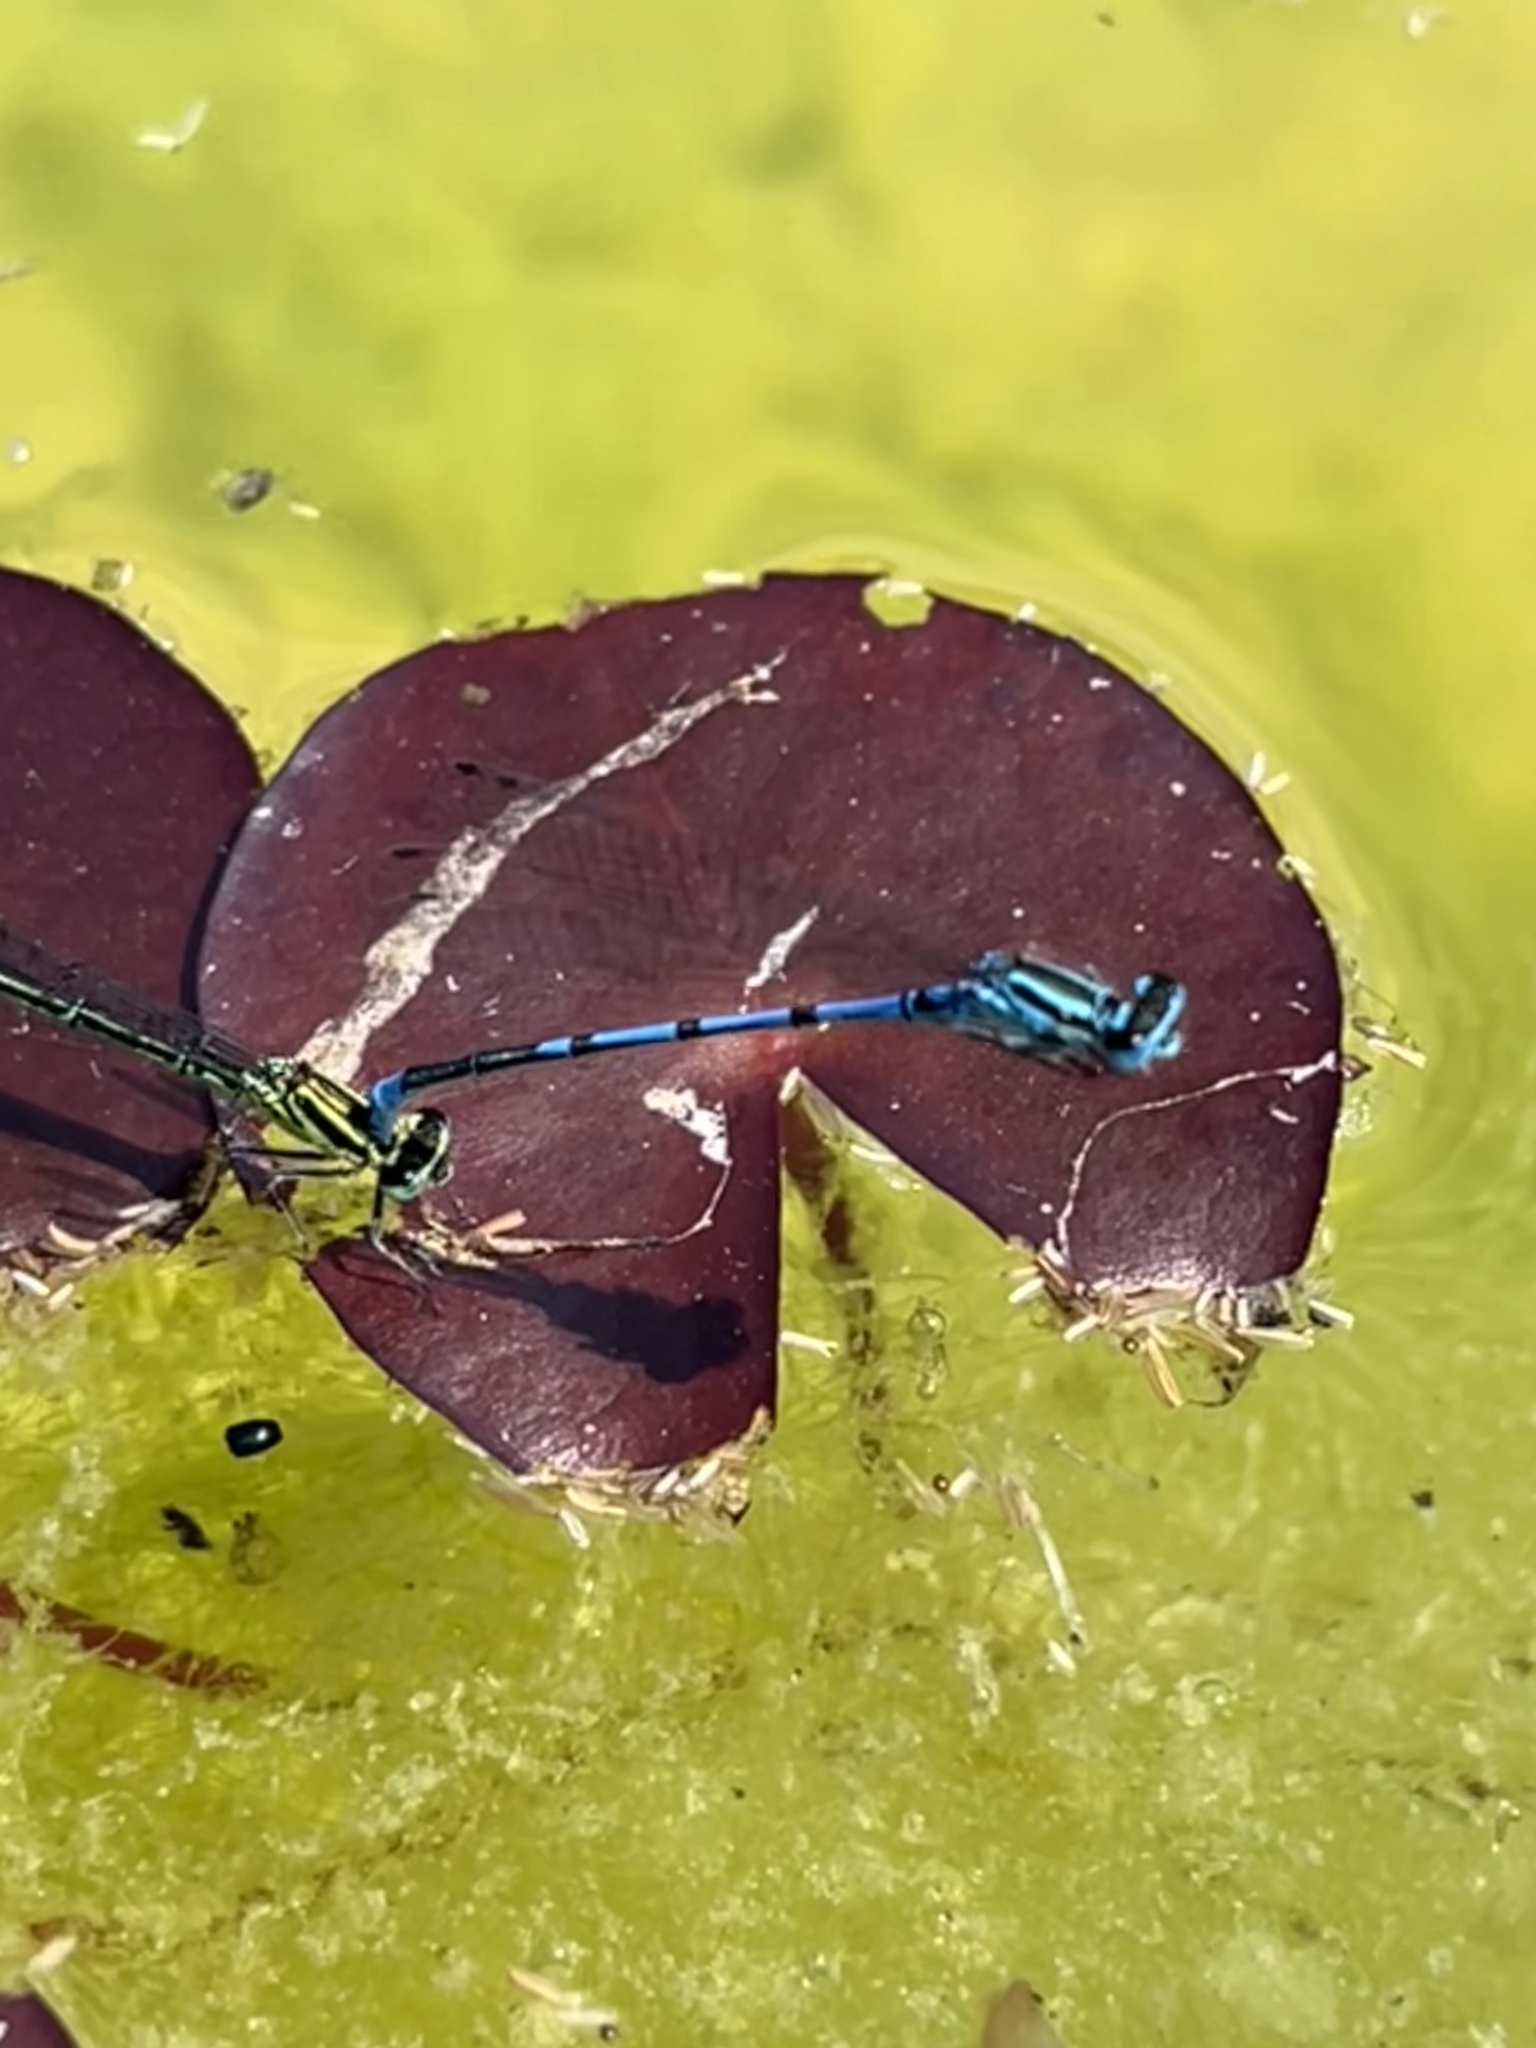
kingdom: Animalia
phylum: Arthropoda
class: Insecta
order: Odonata
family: Coenagrionidae
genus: Coenagrion
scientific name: Coenagrion puella
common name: Azure damselfly
